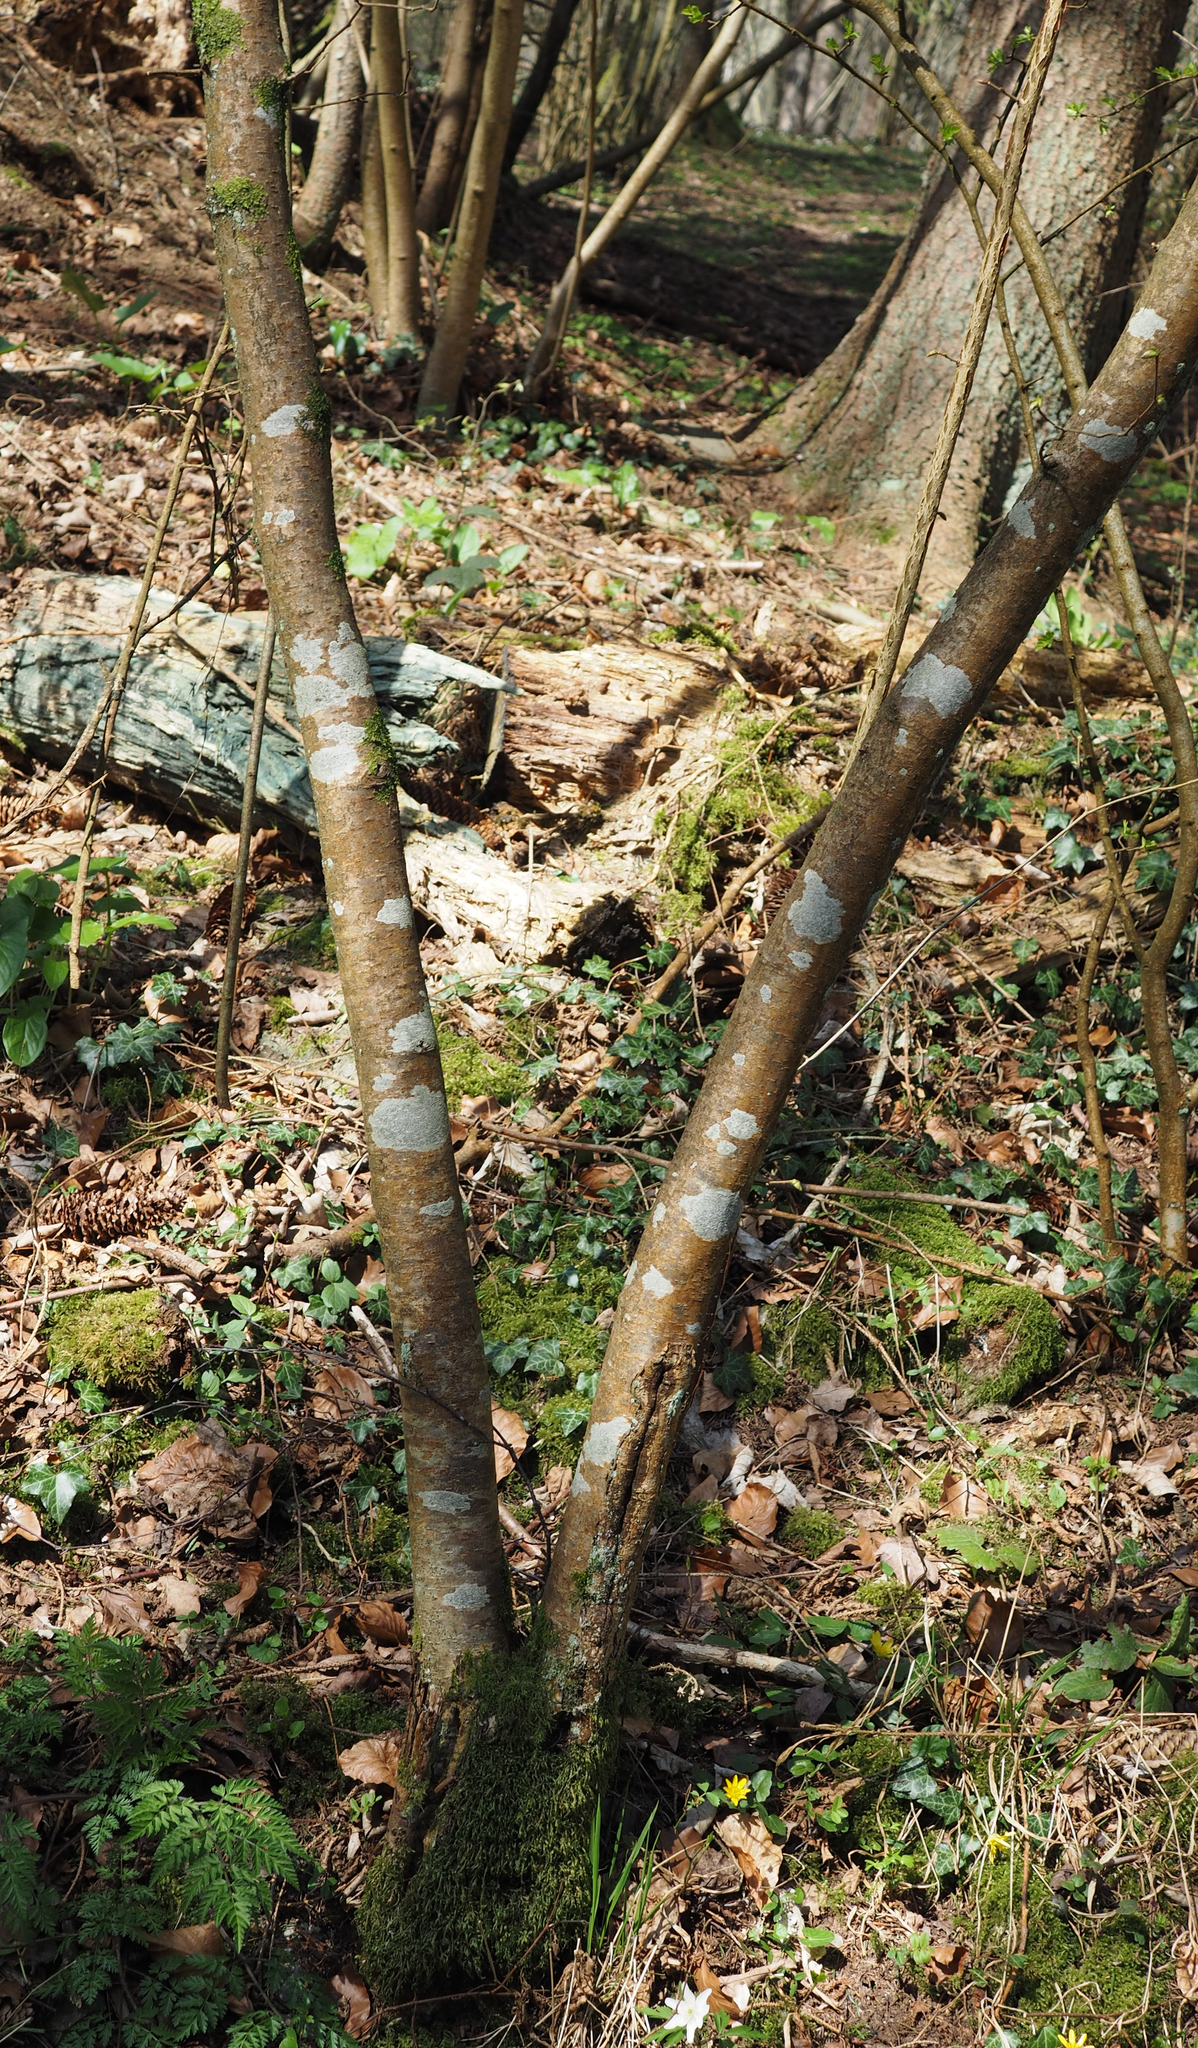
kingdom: Fungi
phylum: Ascomycota
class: Lecanoromycetes
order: Ostropales
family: Graphidaceae
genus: Graphis
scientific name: Graphis scripta
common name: Script lichen
